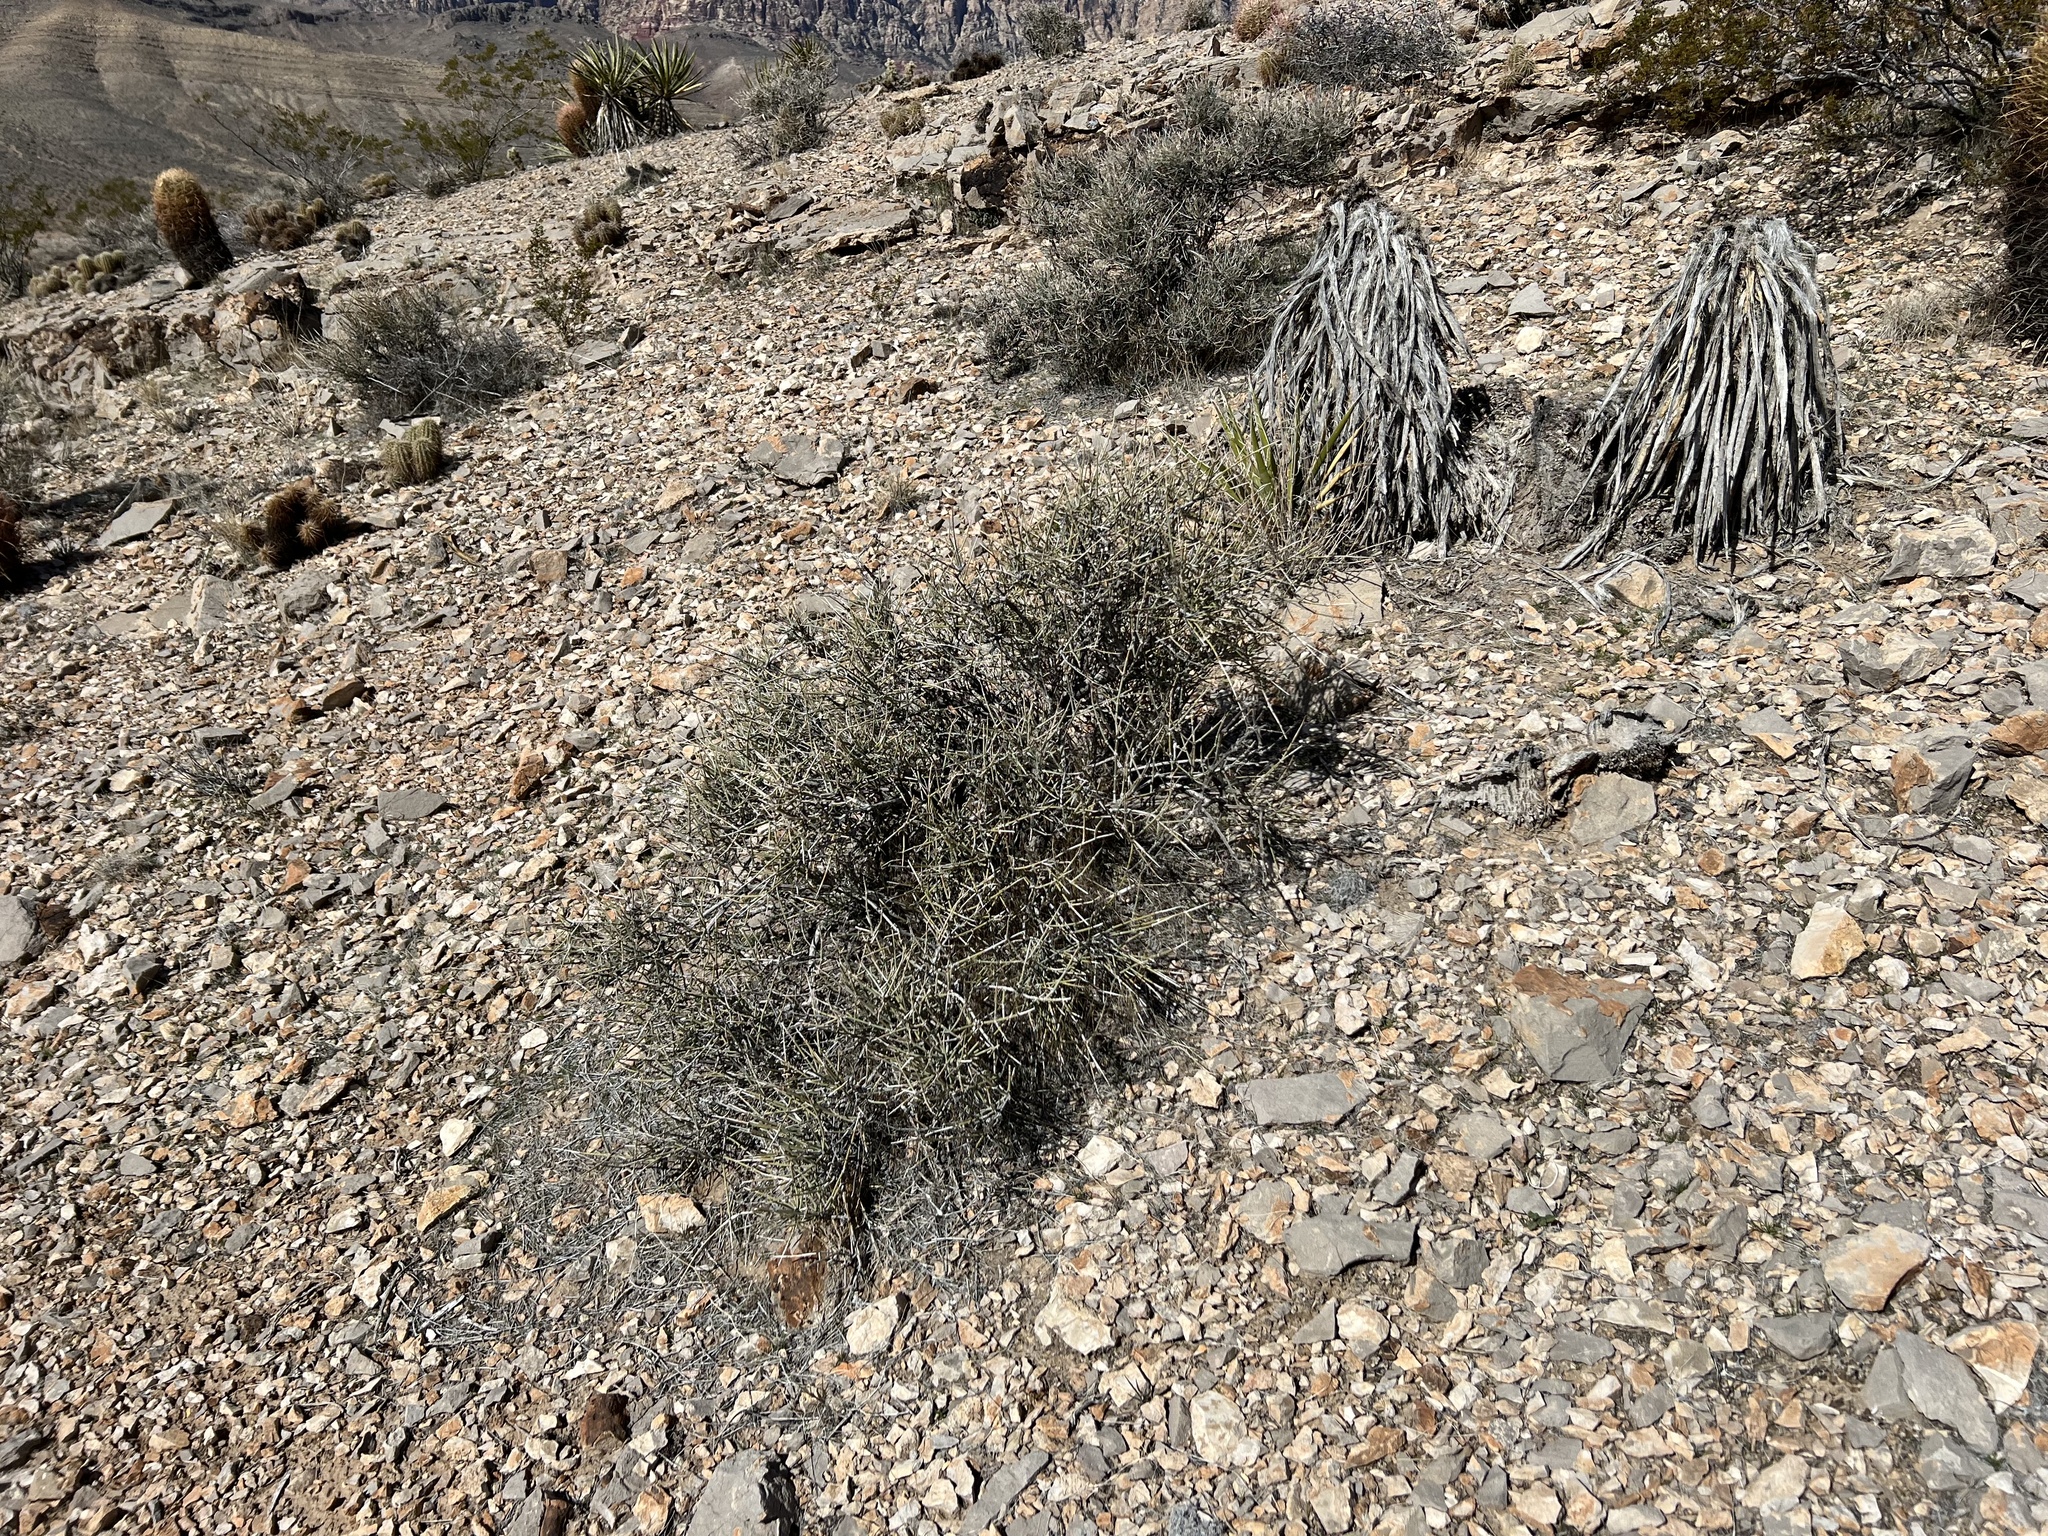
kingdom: Plantae
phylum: Tracheophyta
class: Gnetopsida
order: Ephedrales
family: Ephedraceae
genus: Ephedra
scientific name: Ephedra nevadensis
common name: Gray ephedra
